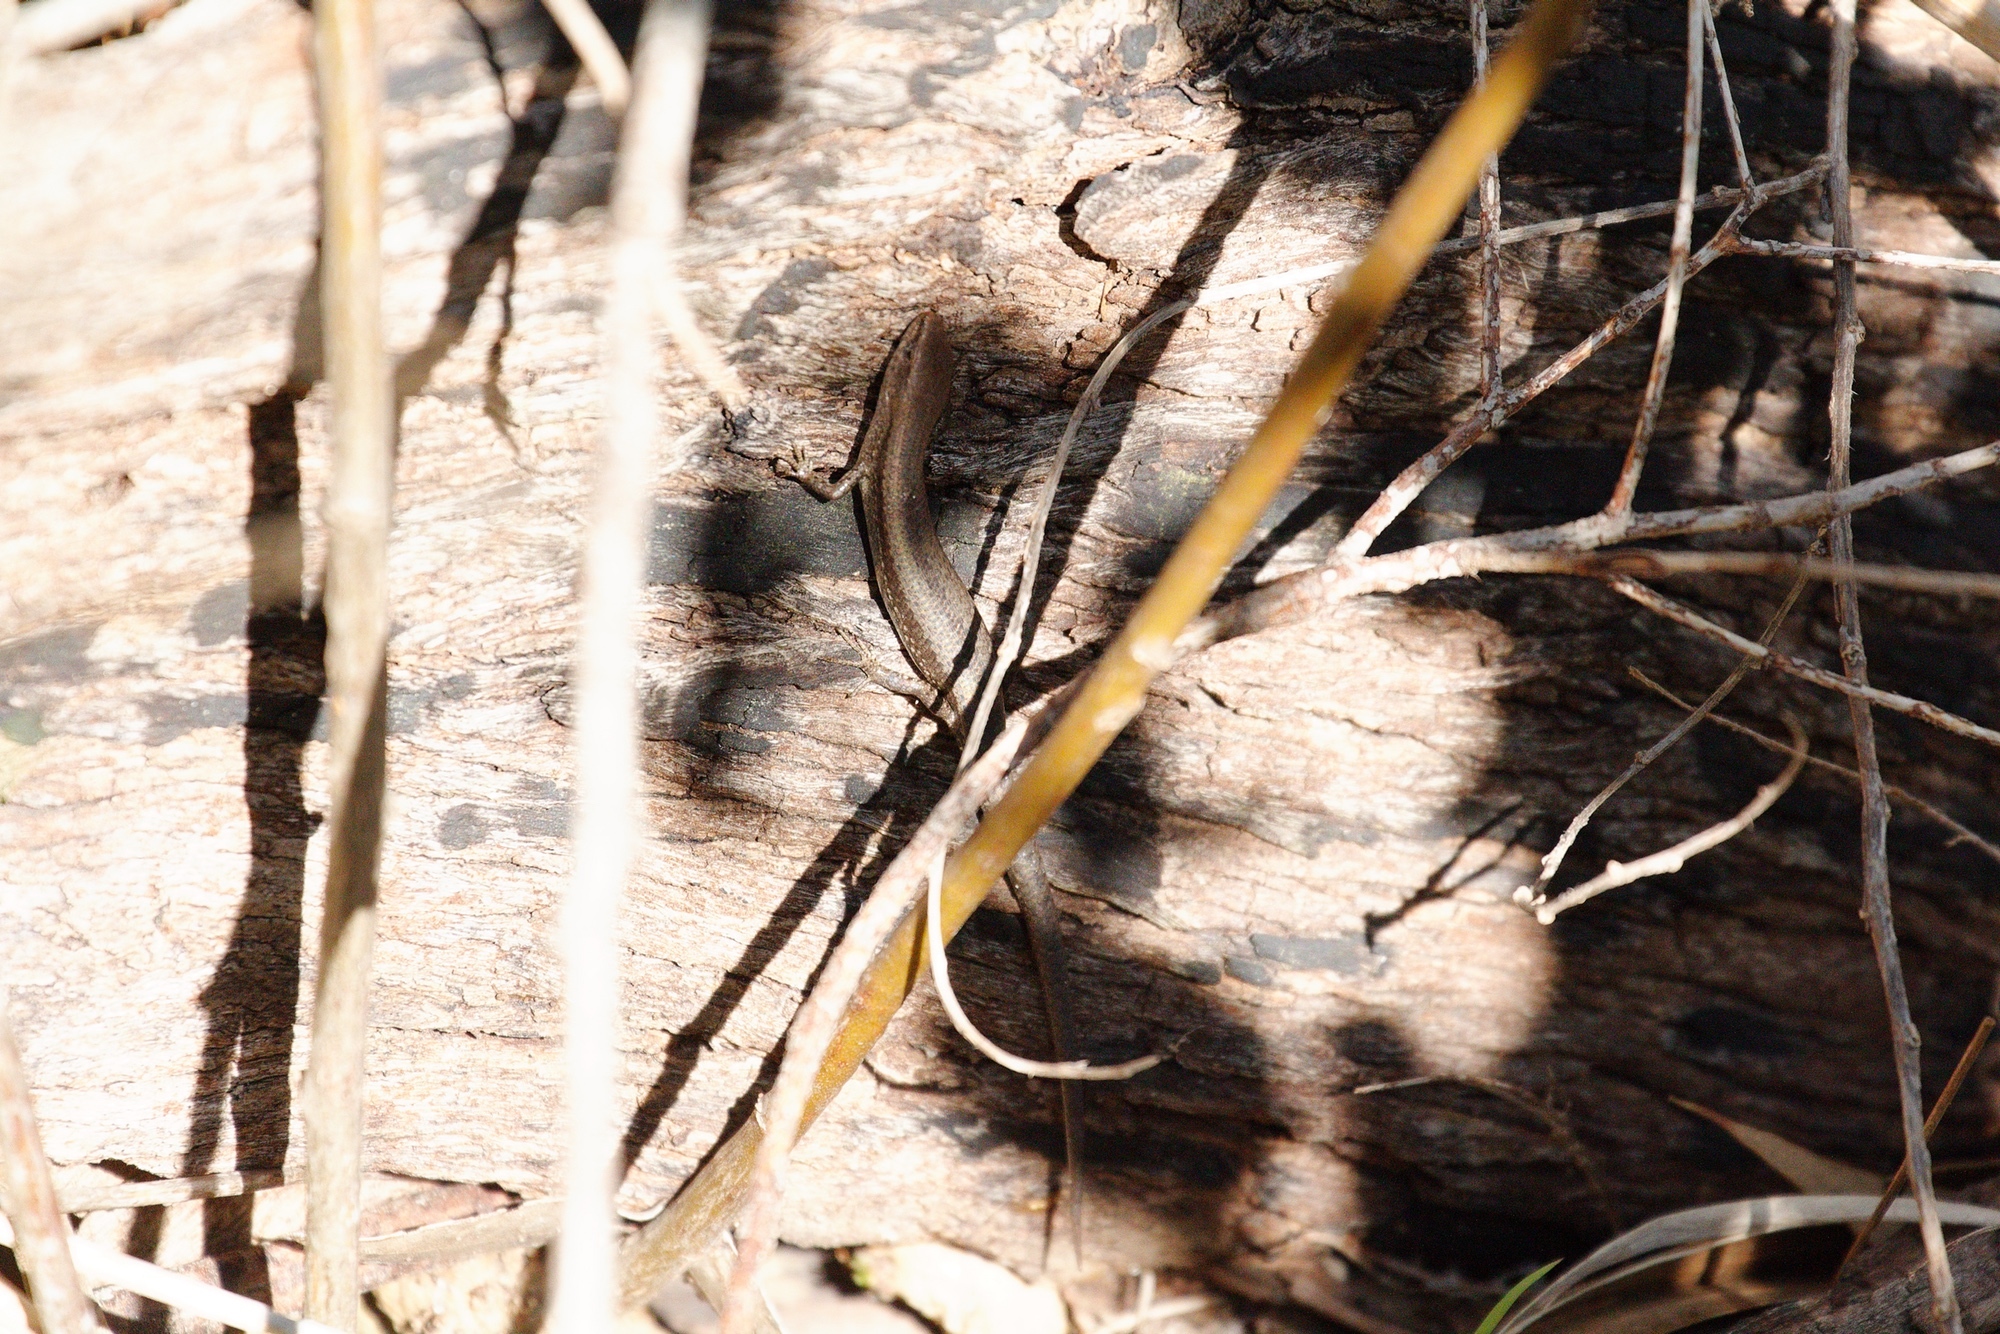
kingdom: Animalia
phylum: Chordata
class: Squamata
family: Scincidae
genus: Lampropholis
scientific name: Lampropholis guichenoti
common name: Garden skink
